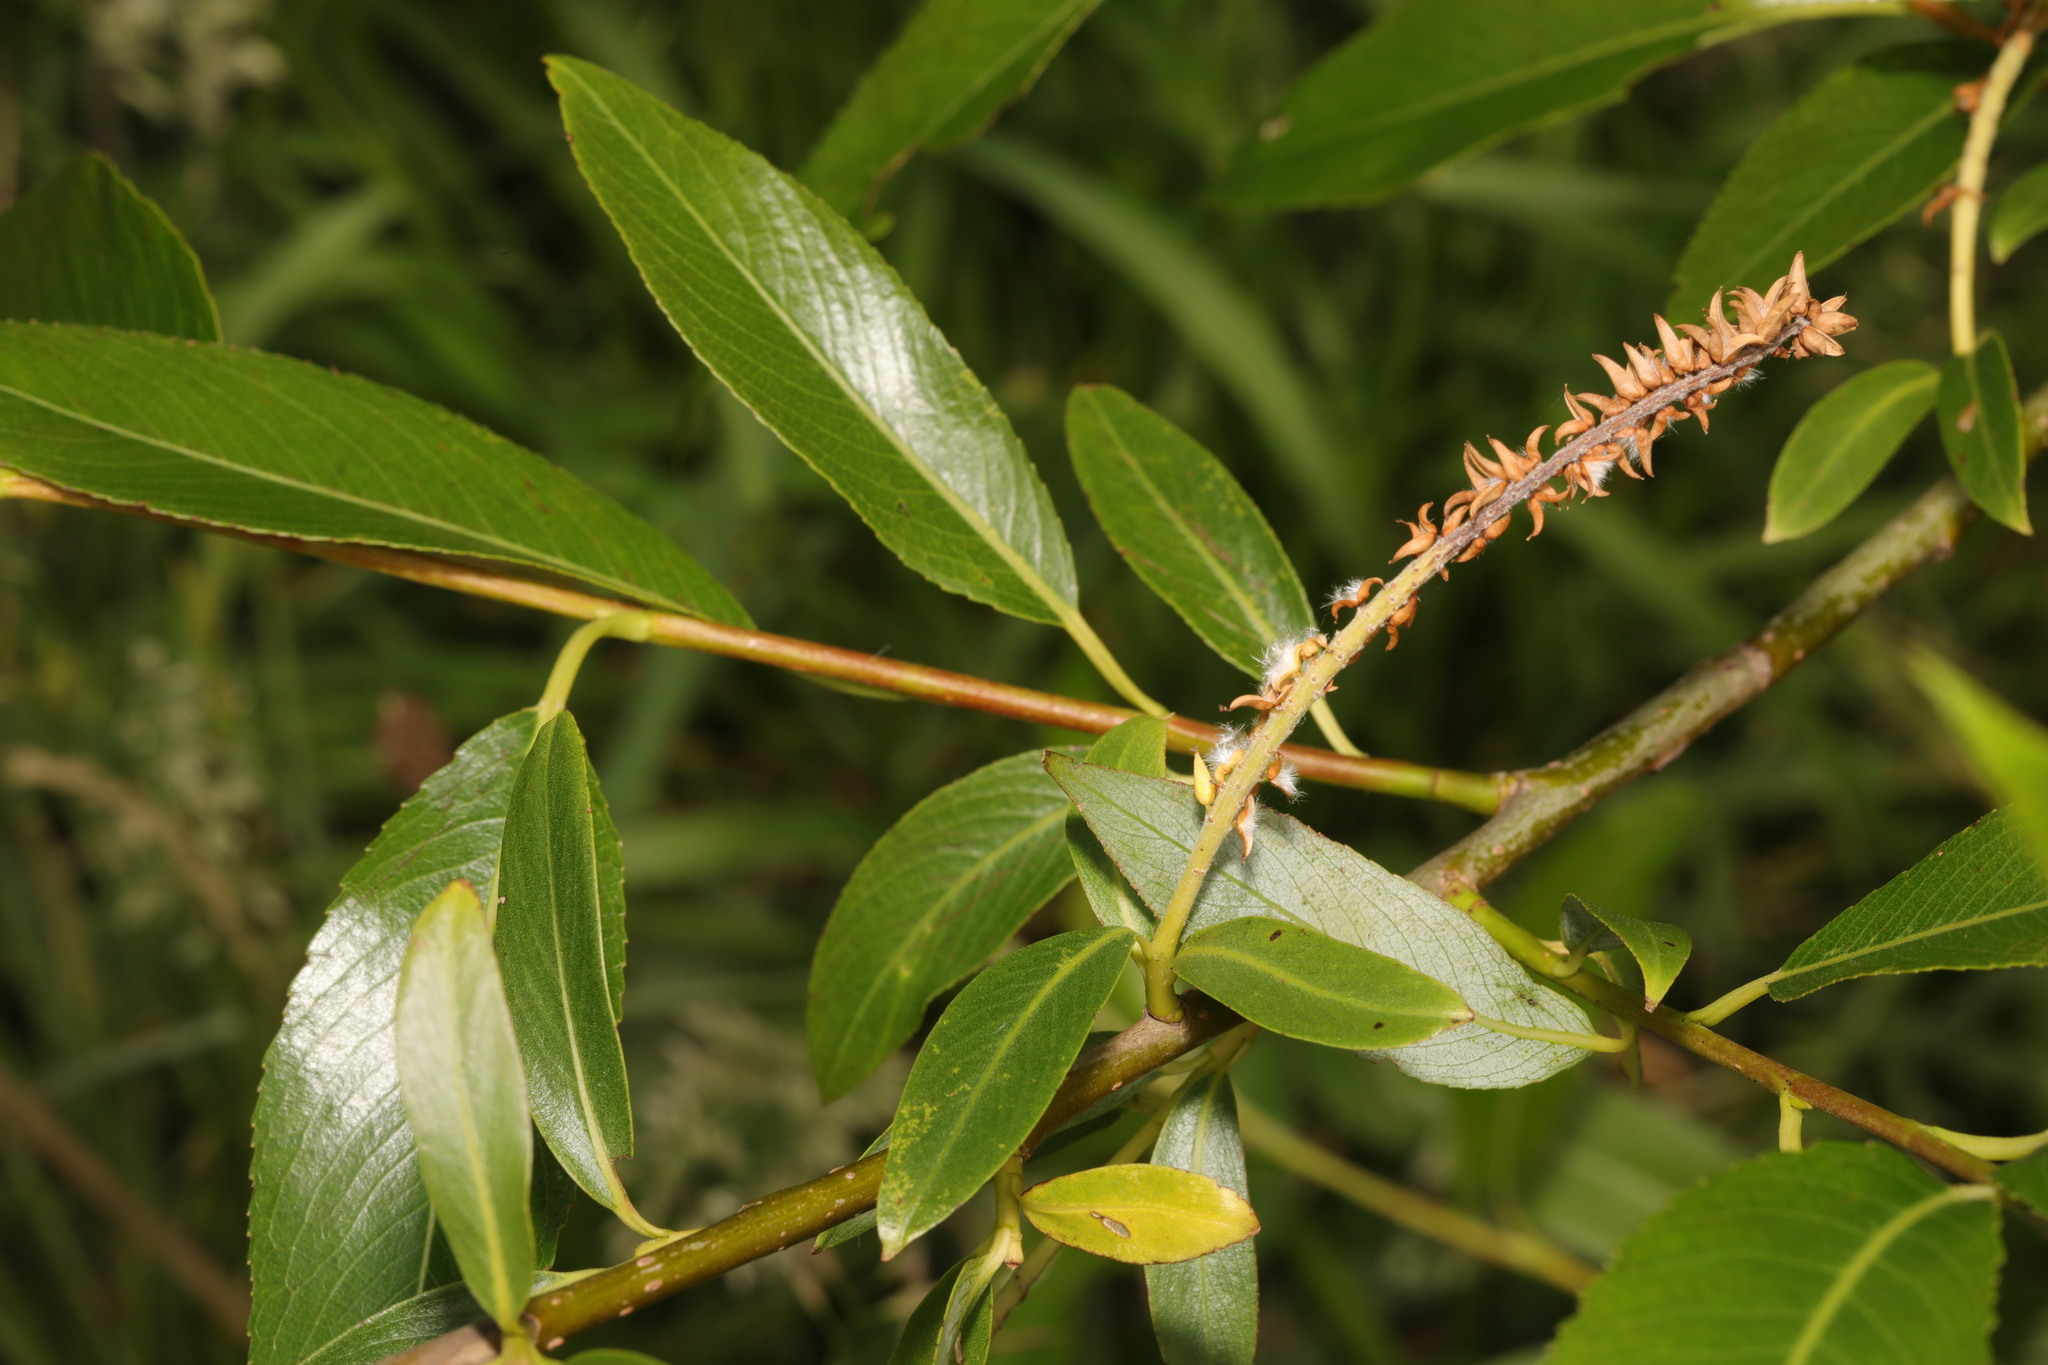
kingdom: Plantae
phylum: Tracheophyta
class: Magnoliopsida
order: Malpighiales
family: Salicaceae
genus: Salix
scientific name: Salix fragilis
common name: Crack willow
